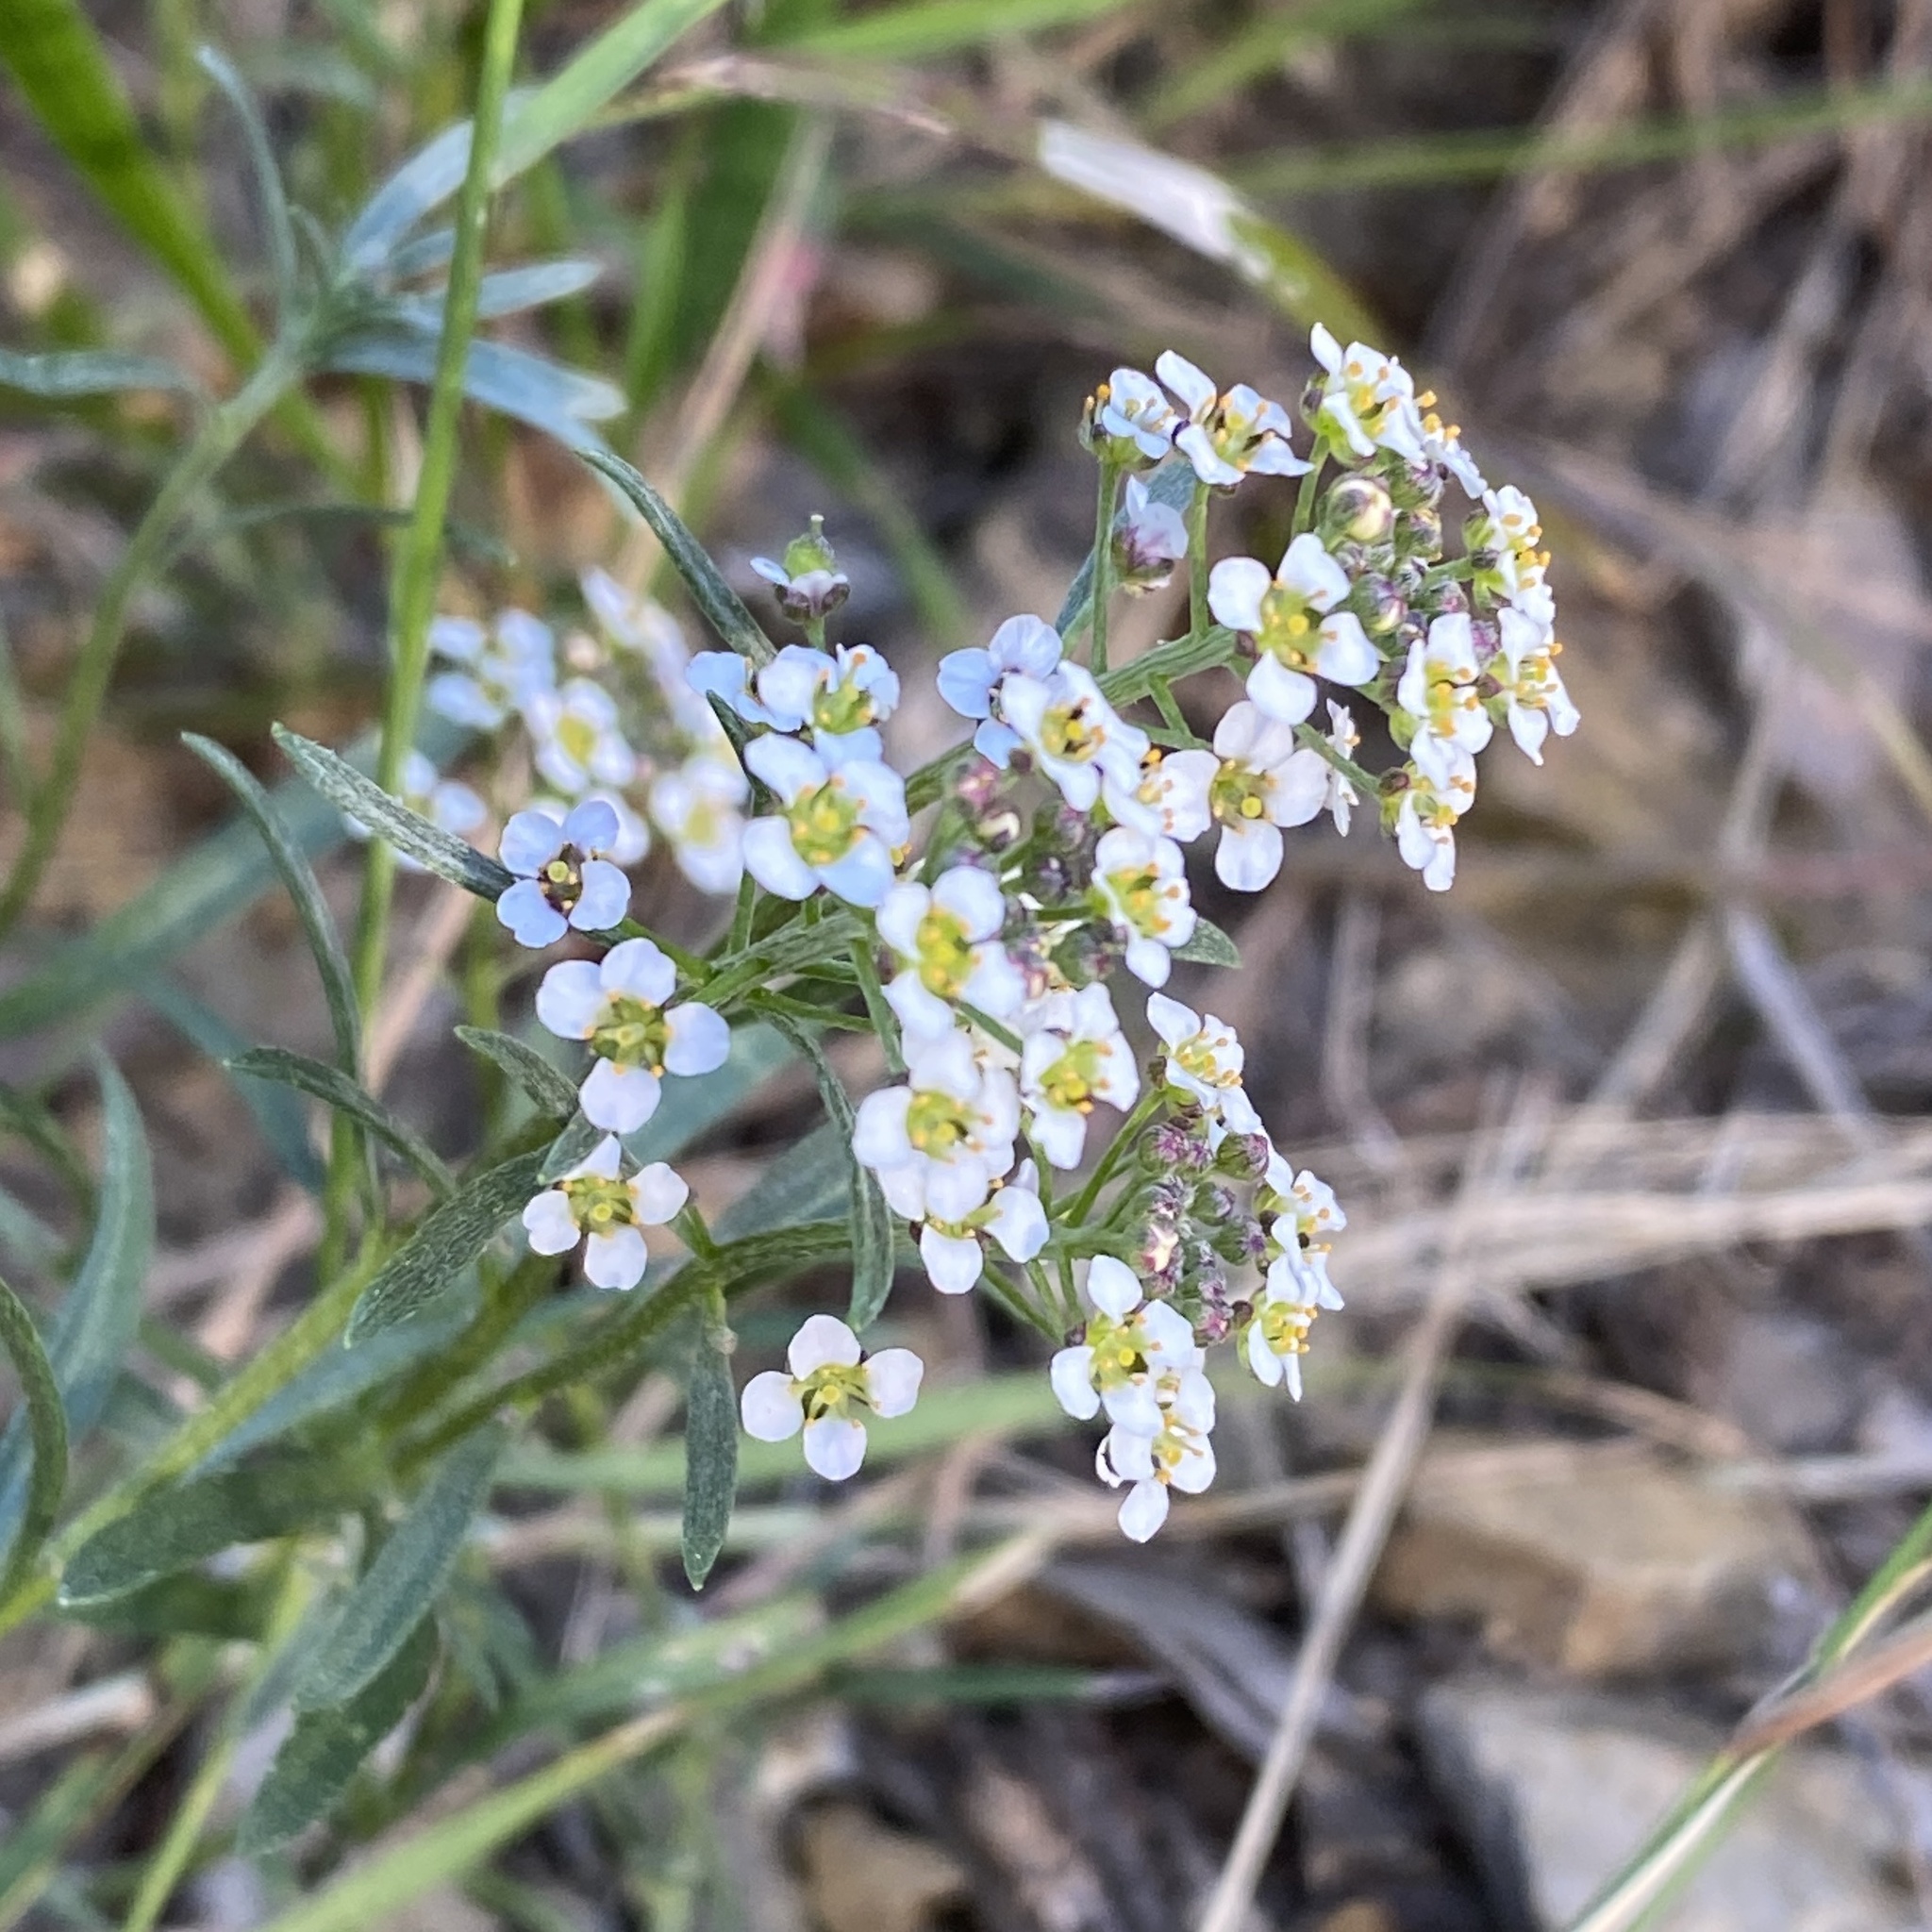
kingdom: Plantae
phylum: Tracheophyta
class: Magnoliopsida
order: Brassicales
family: Brassicaceae
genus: Lobularia
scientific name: Lobularia maritima
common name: Sweet alison
